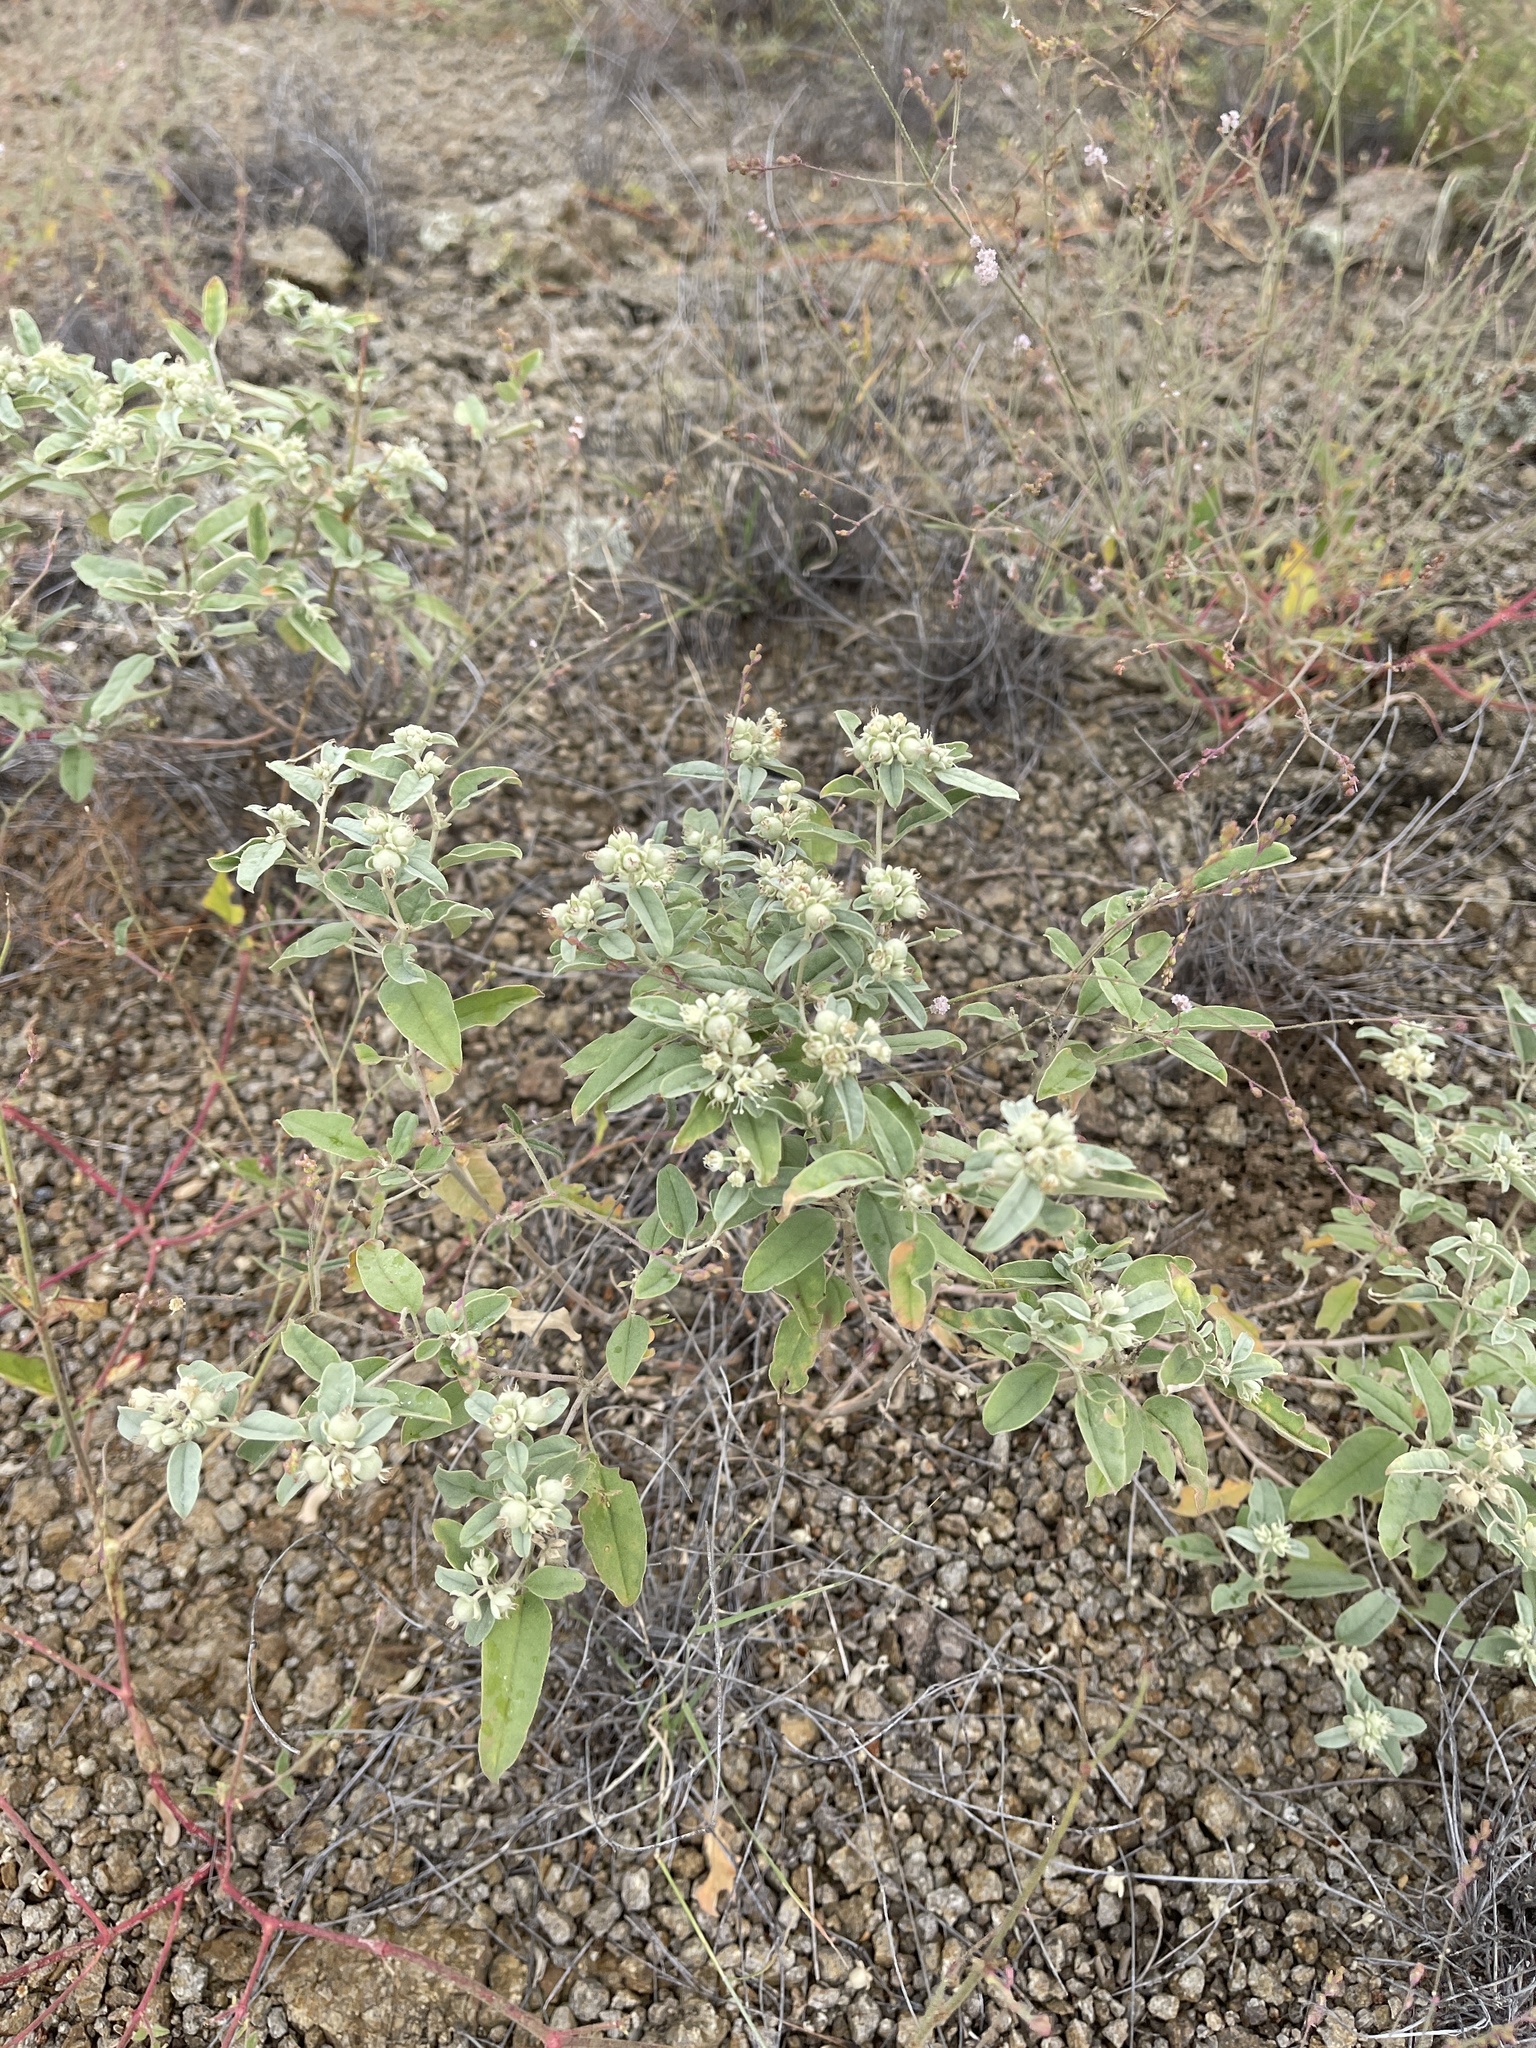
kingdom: Plantae
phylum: Tracheophyta
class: Magnoliopsida
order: Malpighiales
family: Euphorbiaceae
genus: Croton
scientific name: Croton pottsii
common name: Leatherweed
